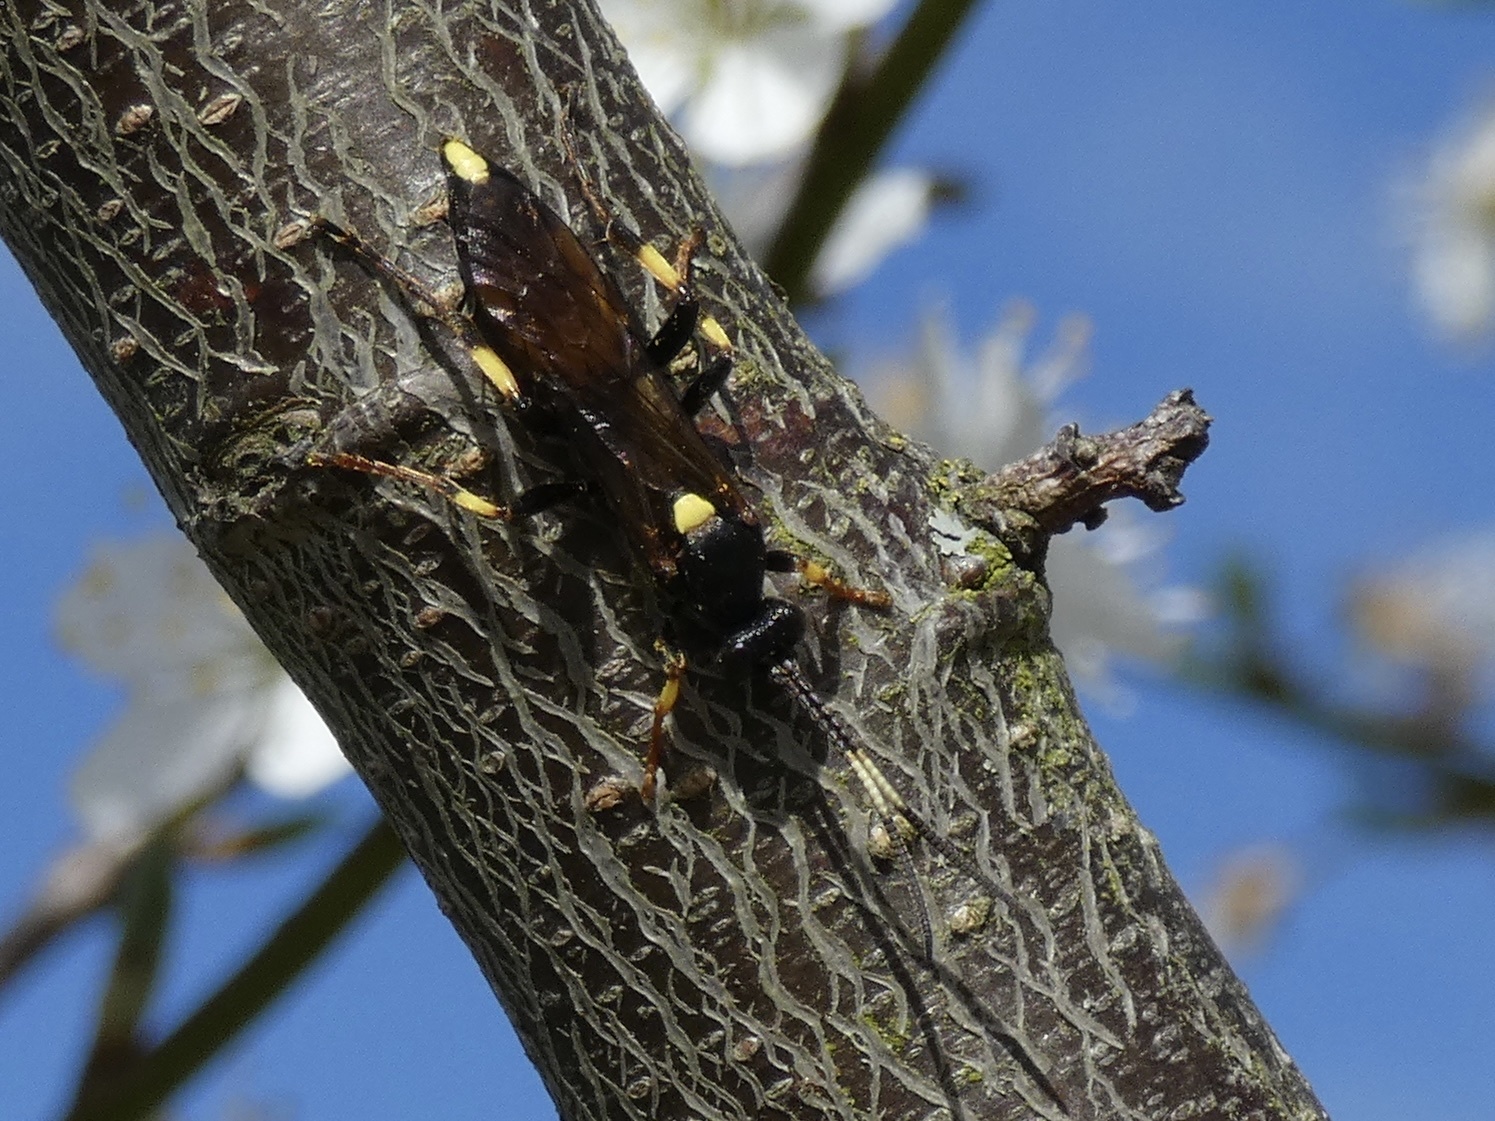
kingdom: Animalia
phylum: Arthropoda
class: Insecta
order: Hymenoptera
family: Ichneumonidae
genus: Ichneumon
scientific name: Ichneumon stramentor
